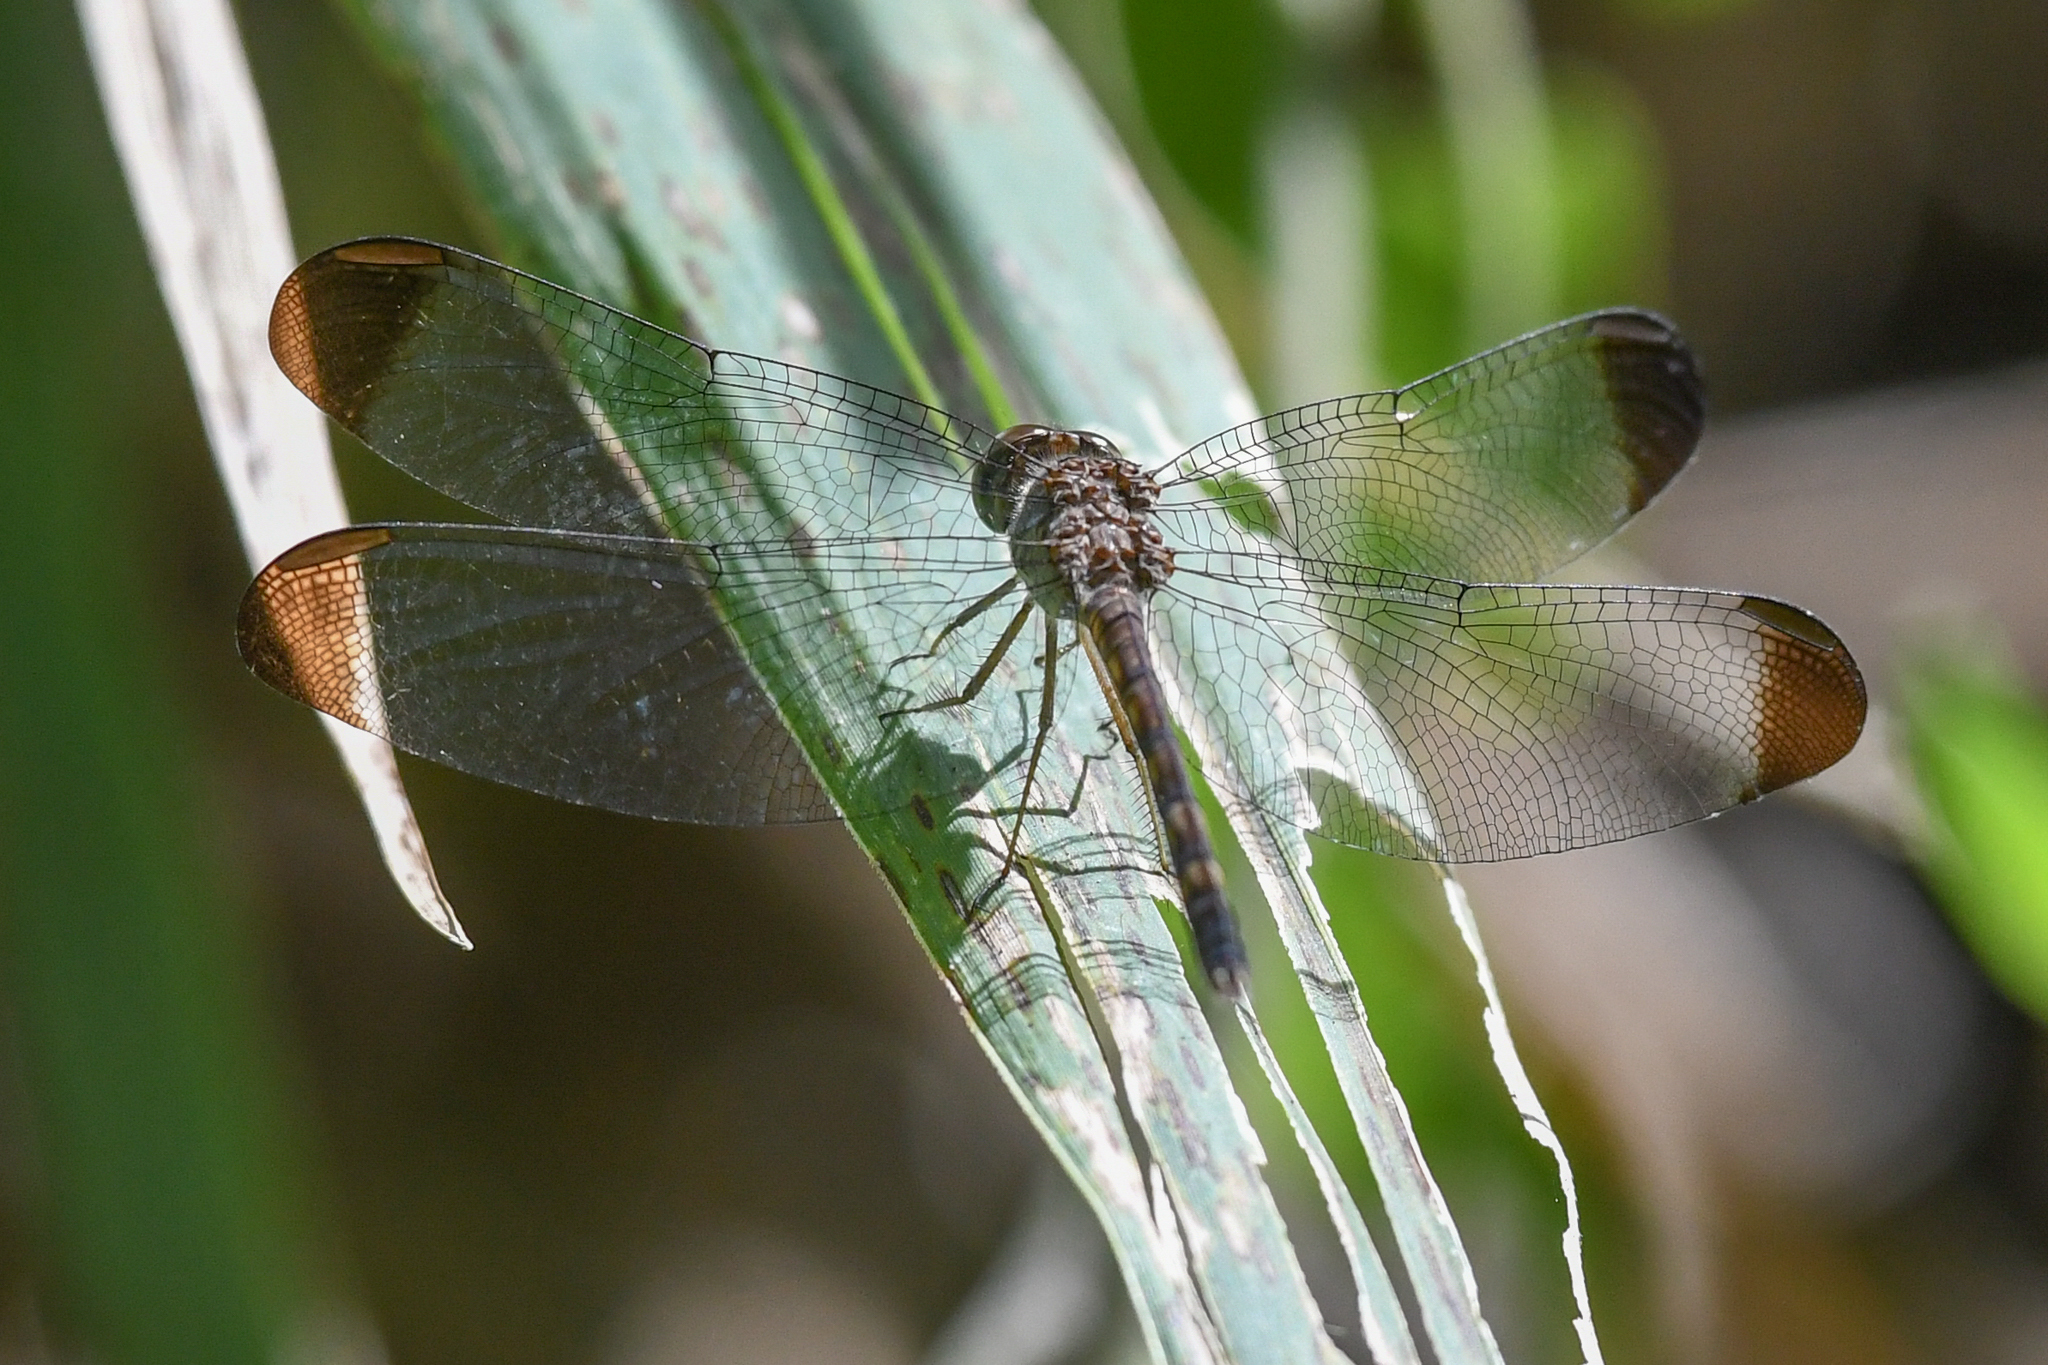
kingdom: Animalia
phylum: Arthropoda
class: Insecta
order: Odonata
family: Libellulidae
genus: Uracis
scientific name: Uracis imbuta
